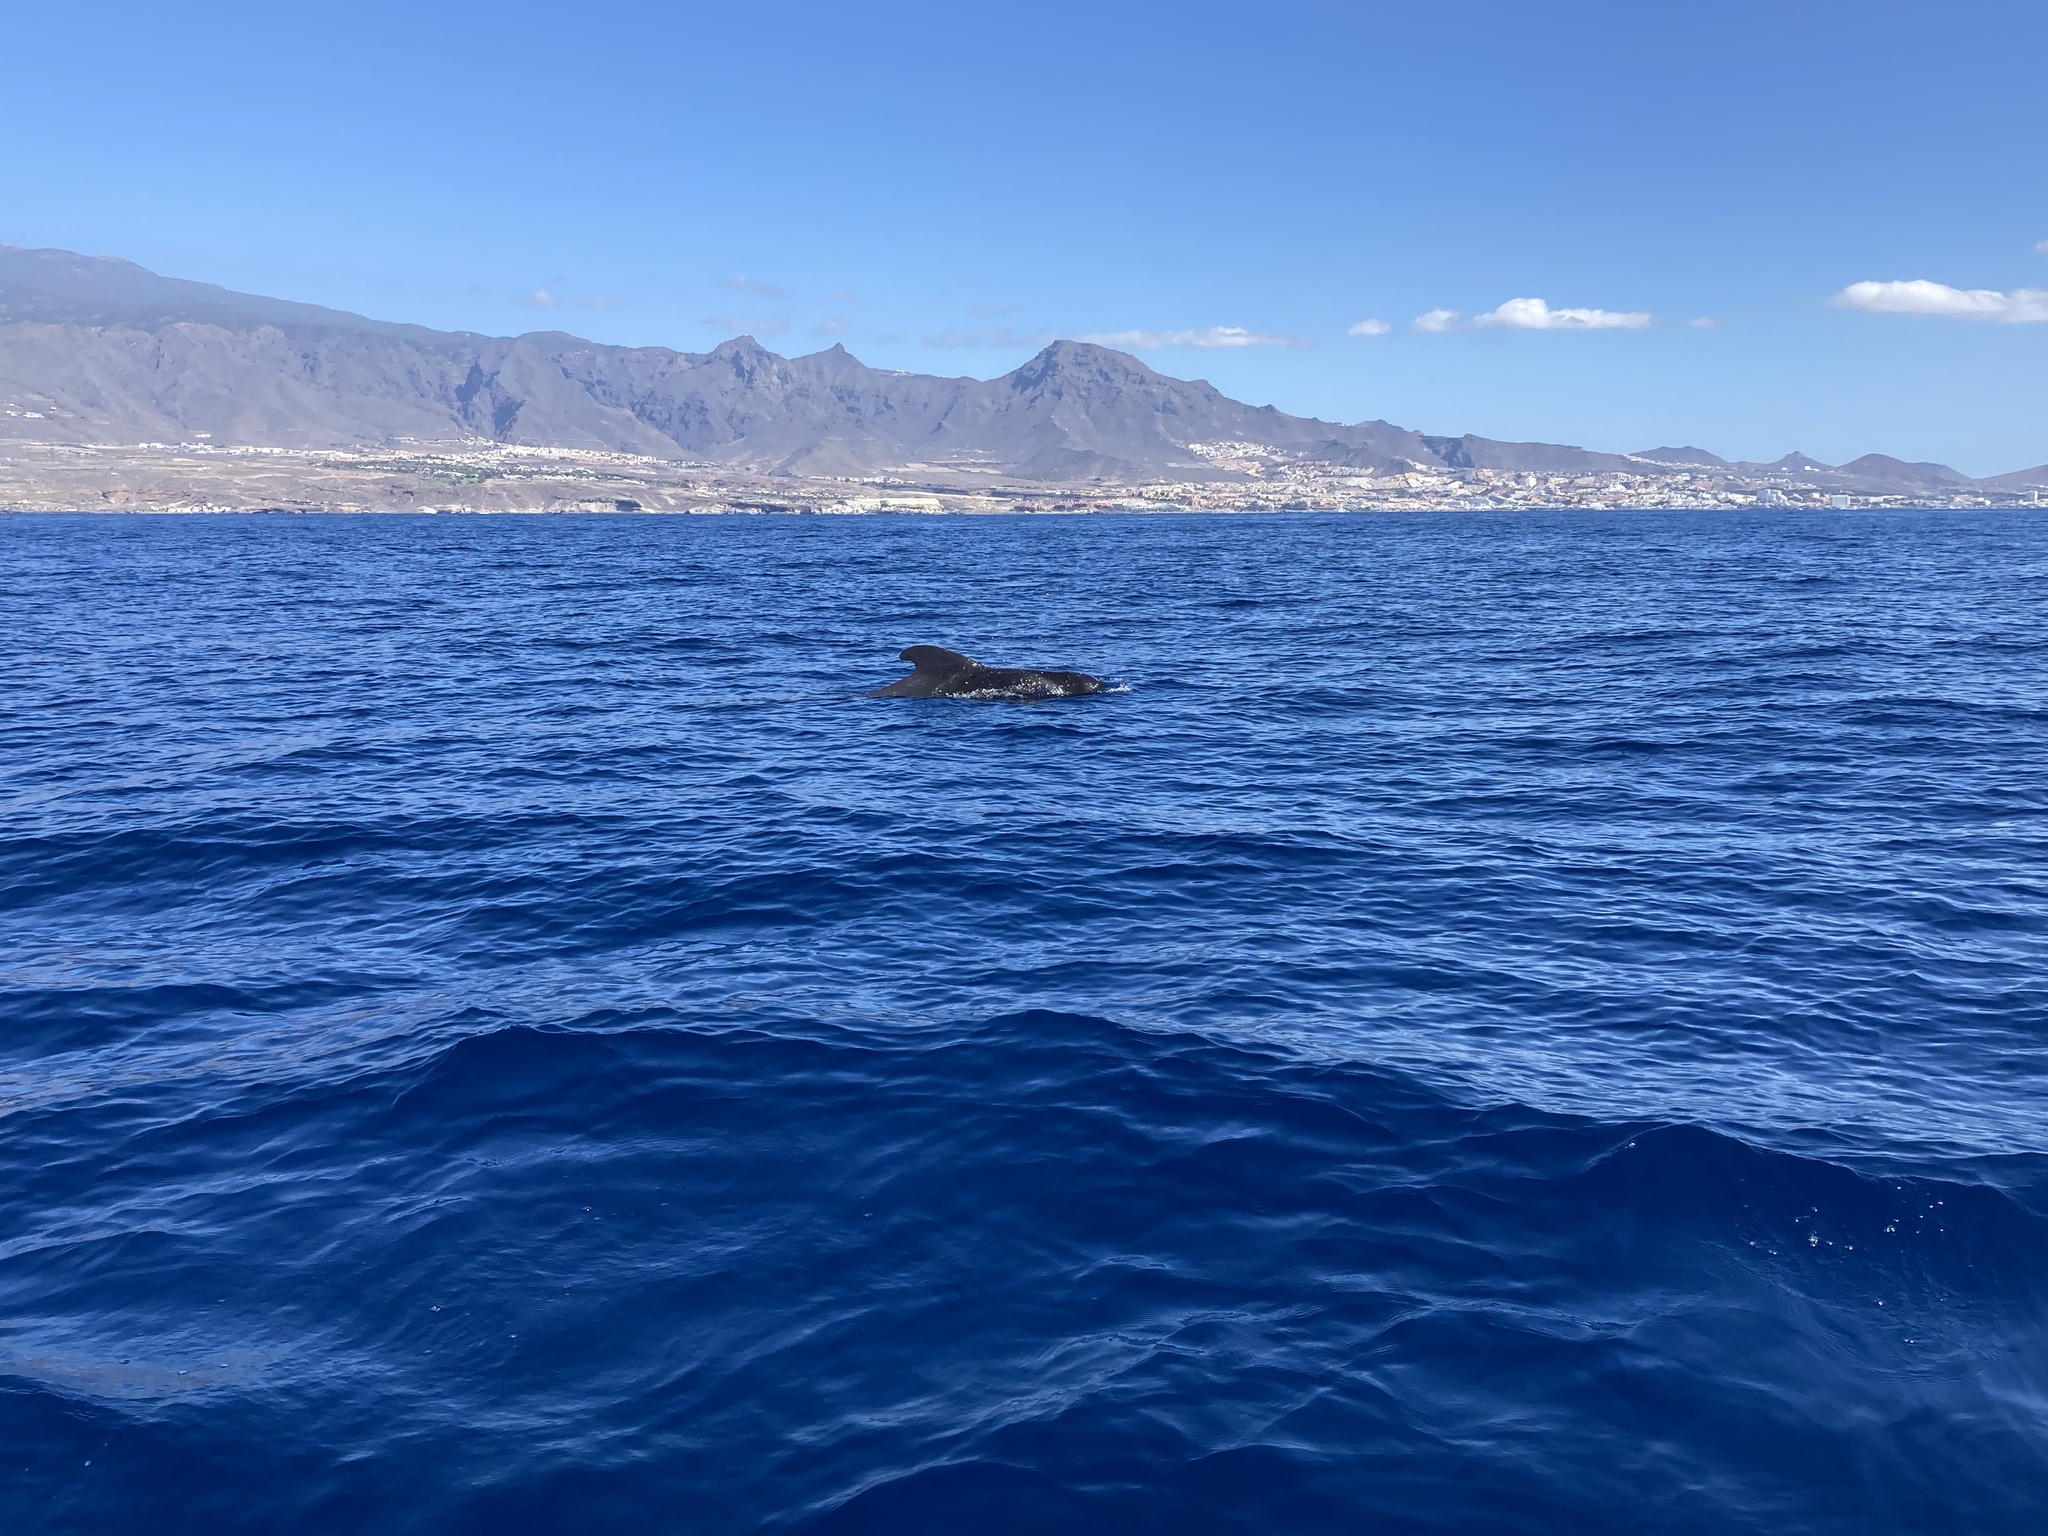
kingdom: Animalia
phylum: Chordata
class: Mammalia
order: Cetacea
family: Delphinidae
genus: Globicephala
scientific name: Globicephala macrorhynchus
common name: Short-finned pilot whale
